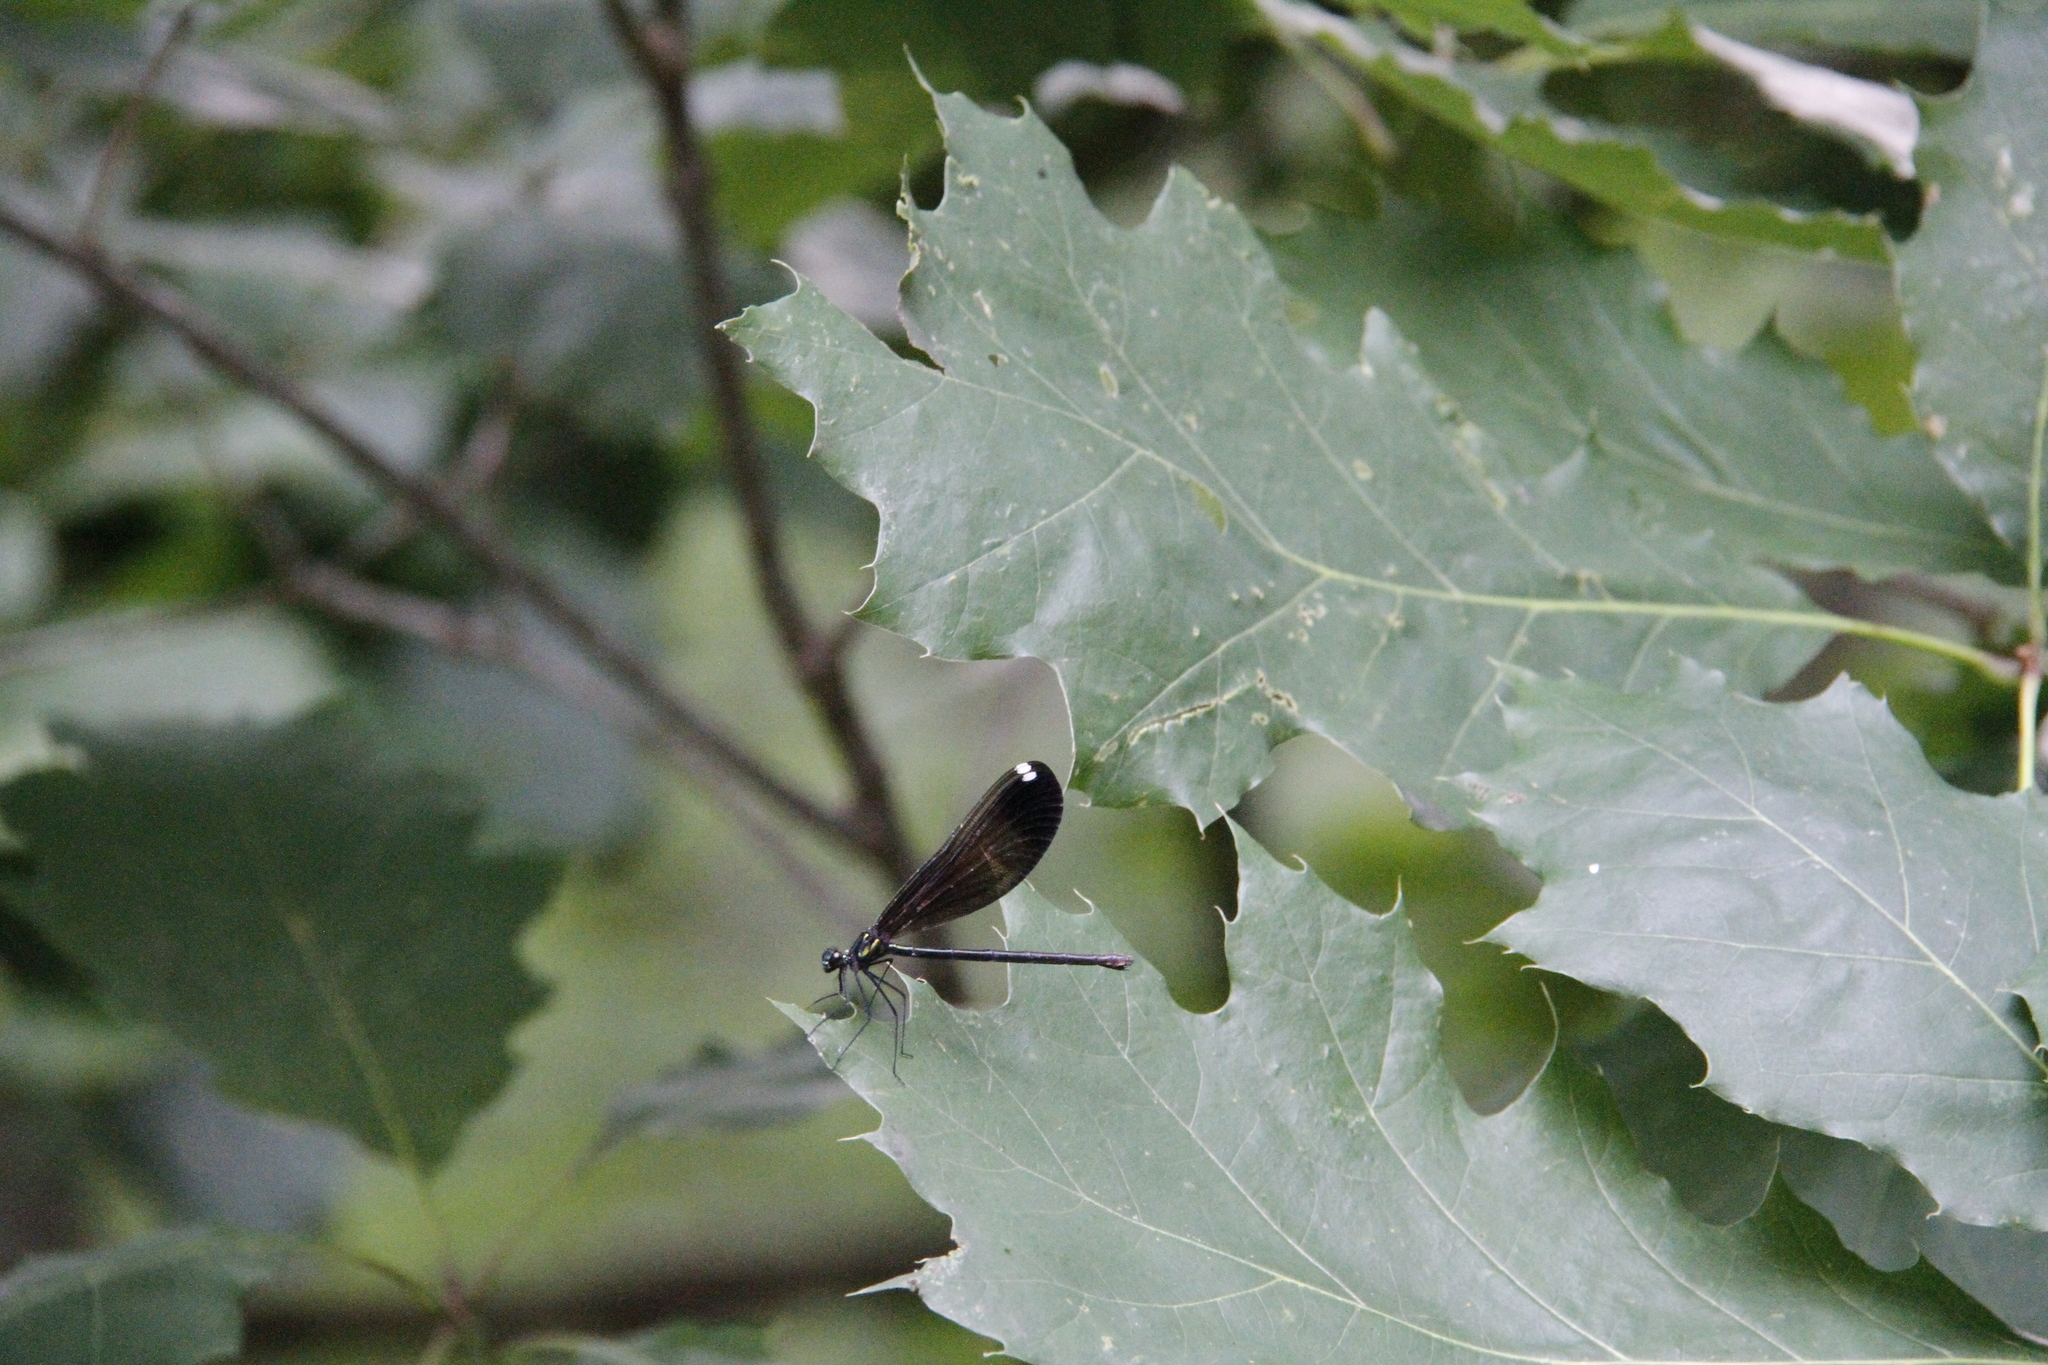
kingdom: Animalia
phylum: Arthropoda
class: Insecta
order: Odonata
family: Calopterygidae
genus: Calopteryx
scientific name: Calopteryx maculata
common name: Ebony jewelwing
